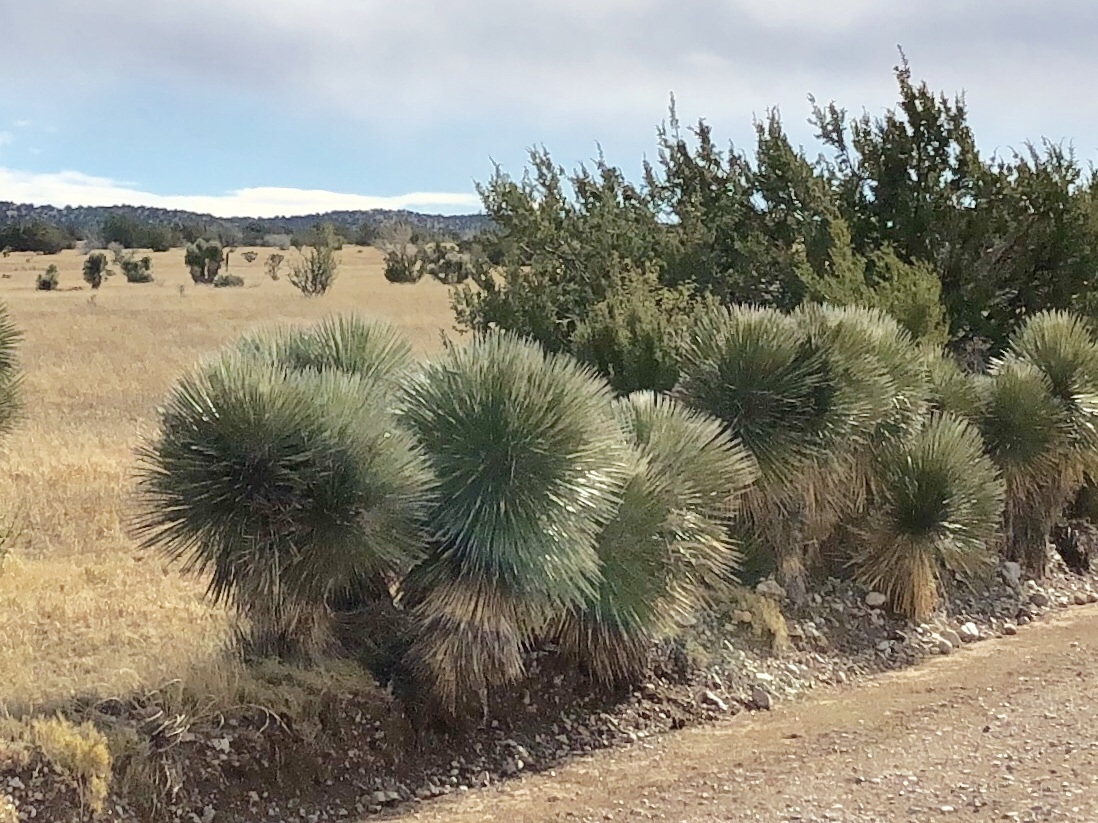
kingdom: Plantae
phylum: Tracheophyta
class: Liliopsida
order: Asparagales
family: Asparagaceae
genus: Yucca
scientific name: Yucca elata
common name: Palmella
